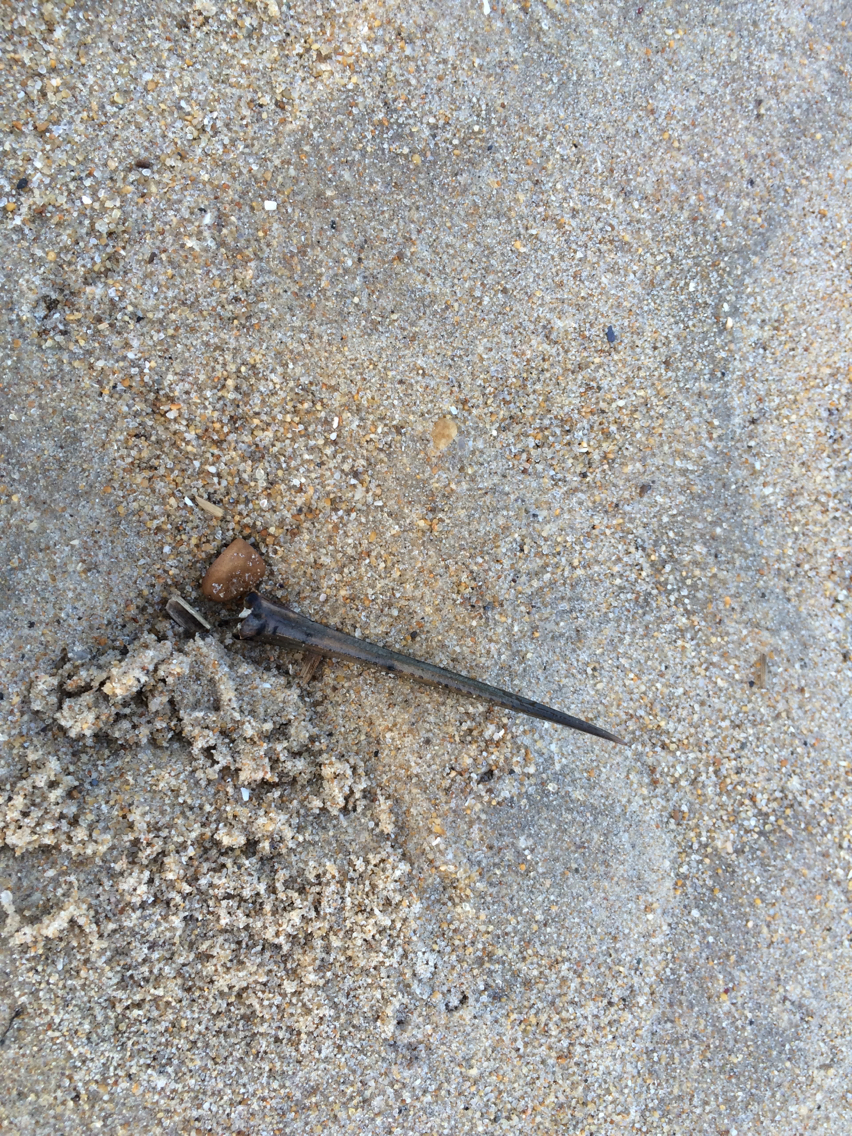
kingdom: Animalia
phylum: Arthropoda
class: Merostomata
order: Xiphosurida
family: Limulidae
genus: Limulus
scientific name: Limulus polyphemus
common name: Horseshoe crab
